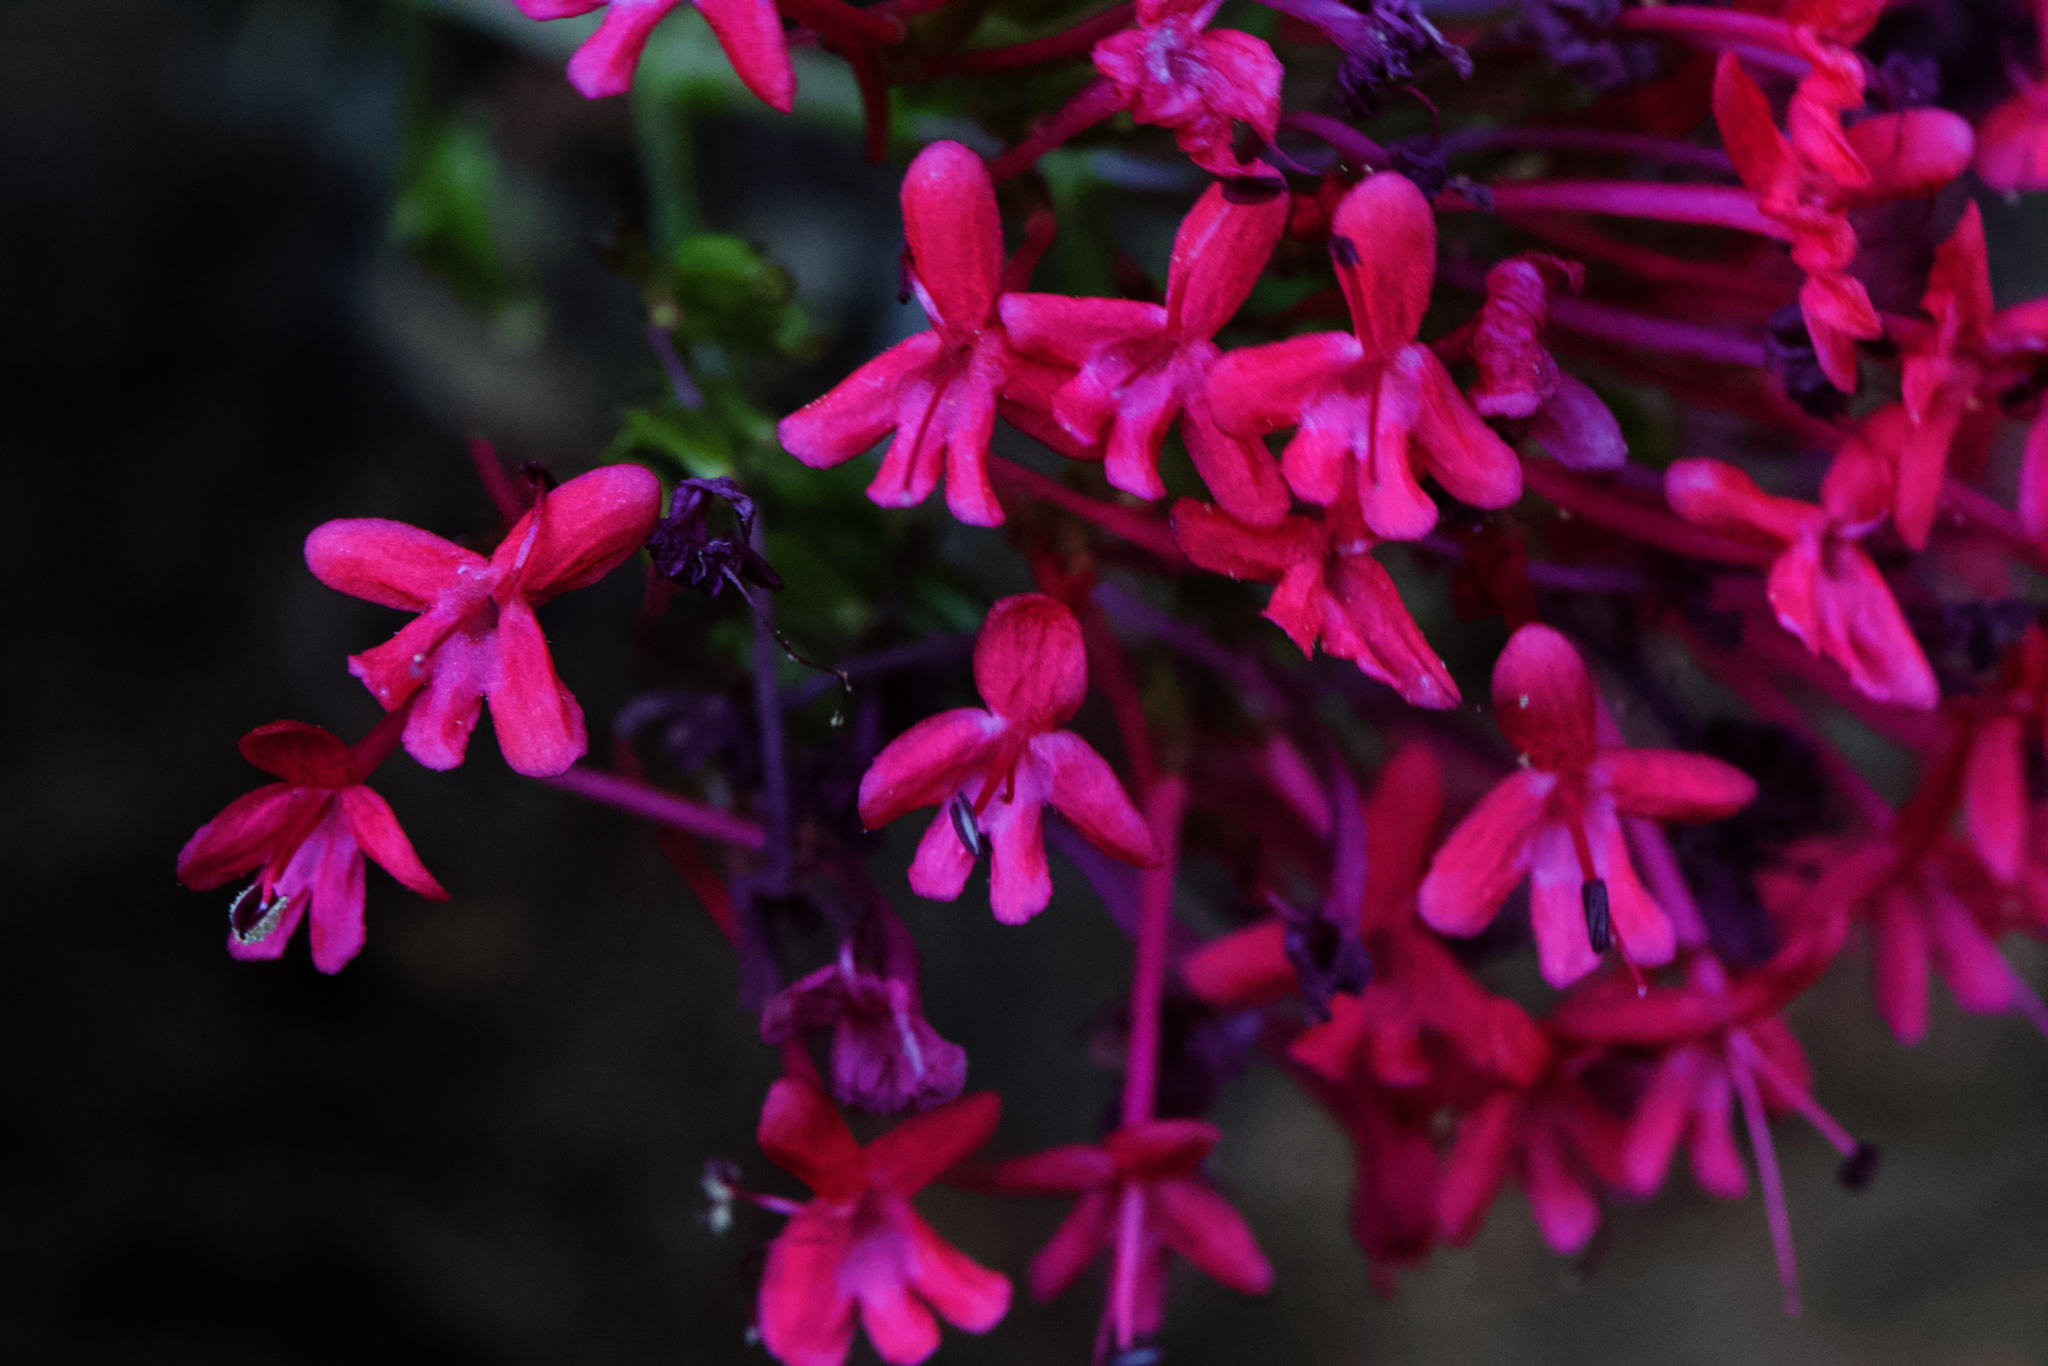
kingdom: Plantae
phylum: Tracheophyta
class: Magnoliopsida
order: Dipsacales
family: Caprifoliaceae
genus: Centranthus
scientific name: Centranthus ruber
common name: Red valerian
